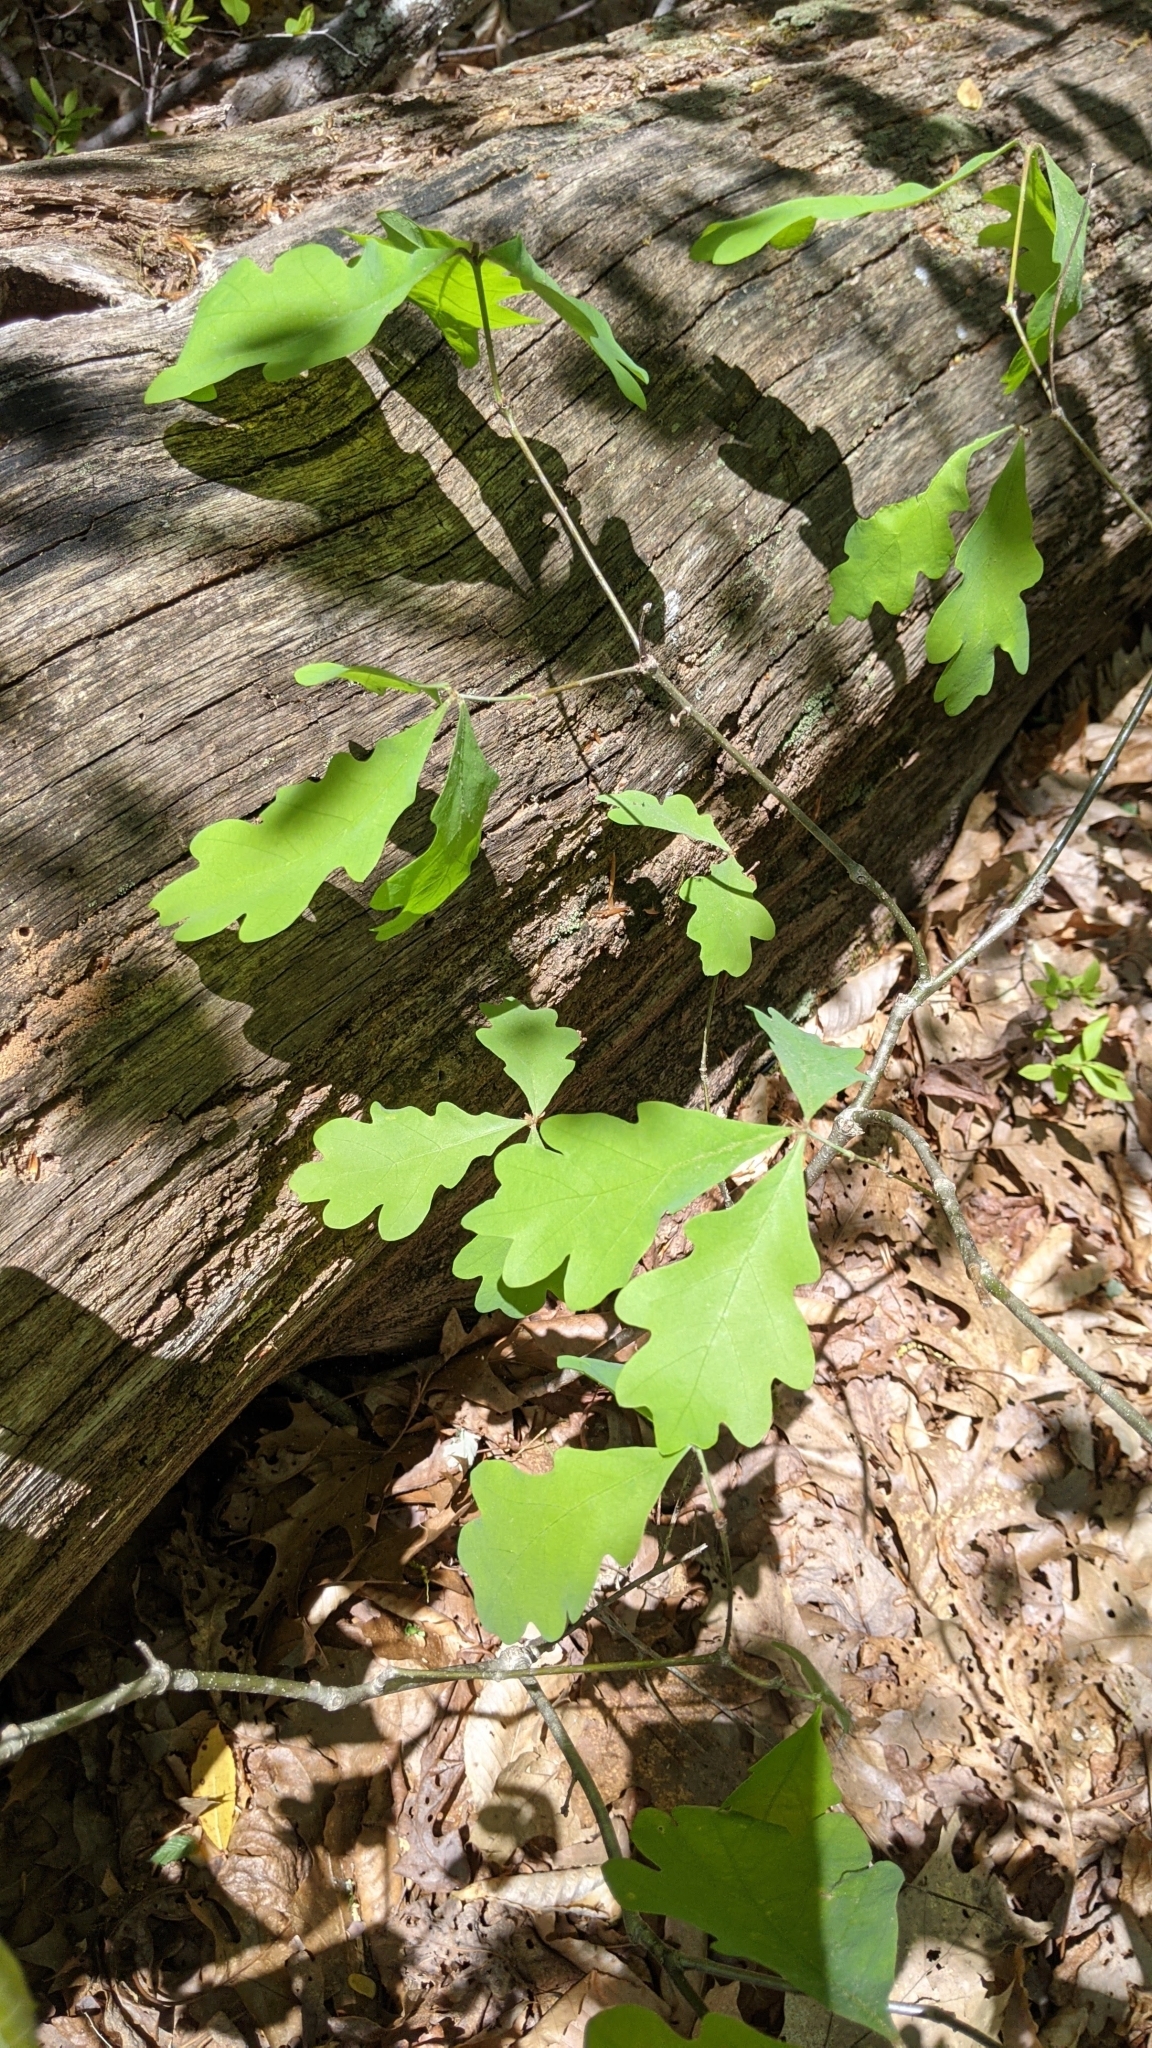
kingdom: Plantae
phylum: Tracheophyta
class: Magnoliopsida
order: Fagales
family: Fagaceae
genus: Quercus
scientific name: Quercus alba
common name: White oak
